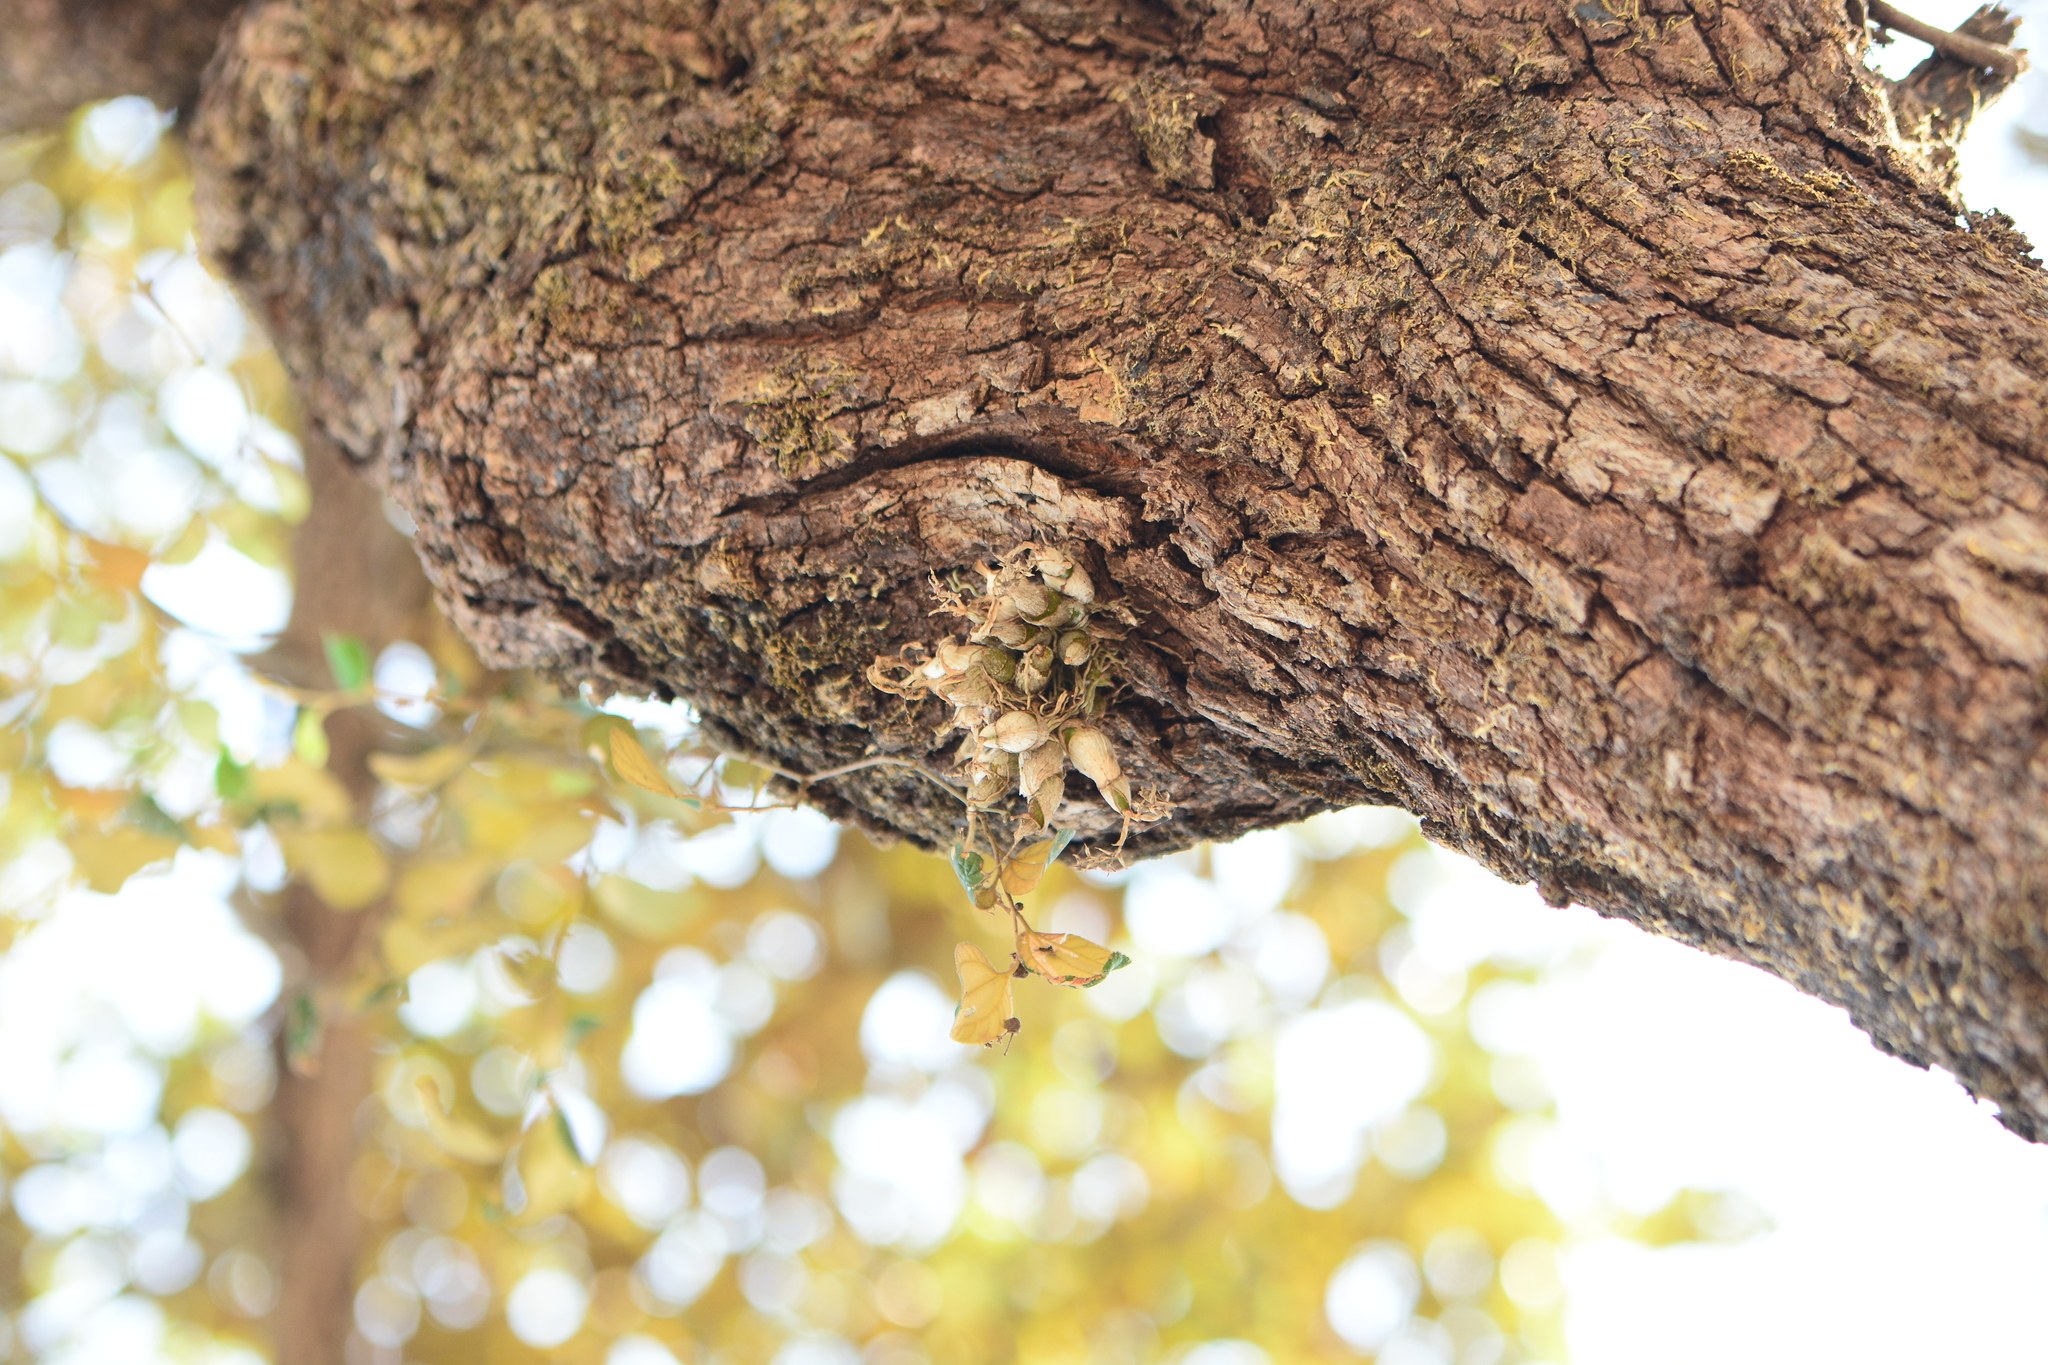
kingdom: Plantae
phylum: Tracheophyta
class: Liliopsida
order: Asparagales
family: Orchidaceae
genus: Dendrobium
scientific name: Dendrobium microbulbon
